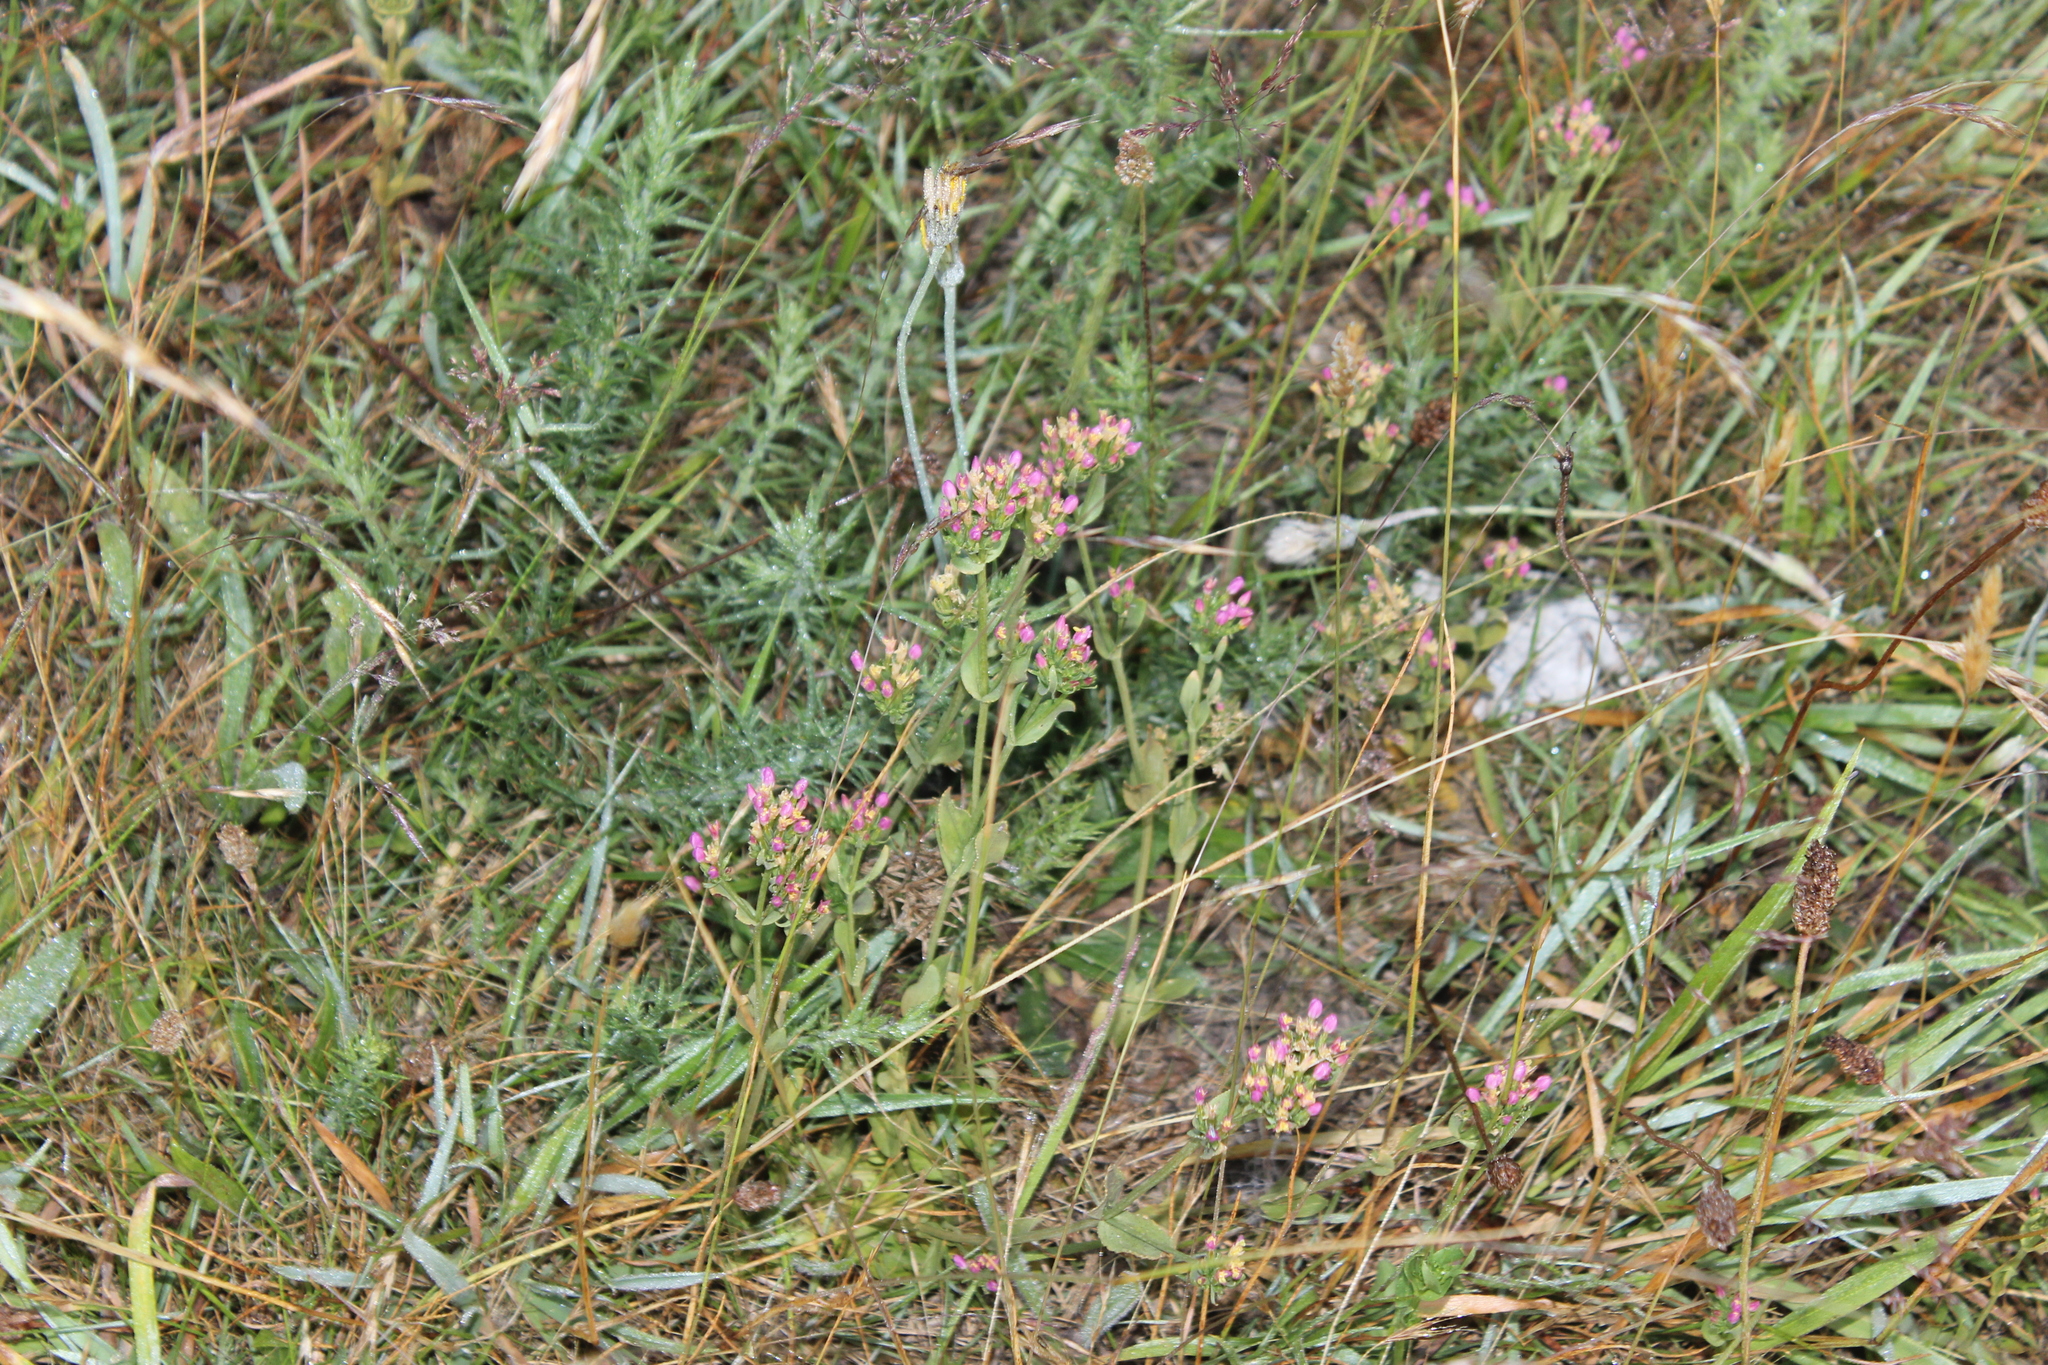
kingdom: Plantae
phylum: Tracheophyta
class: Magnoliopsida
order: Gentianales
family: Gentianaceae
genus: Centaurium
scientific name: Centaurium erythraea
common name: Common centaury
